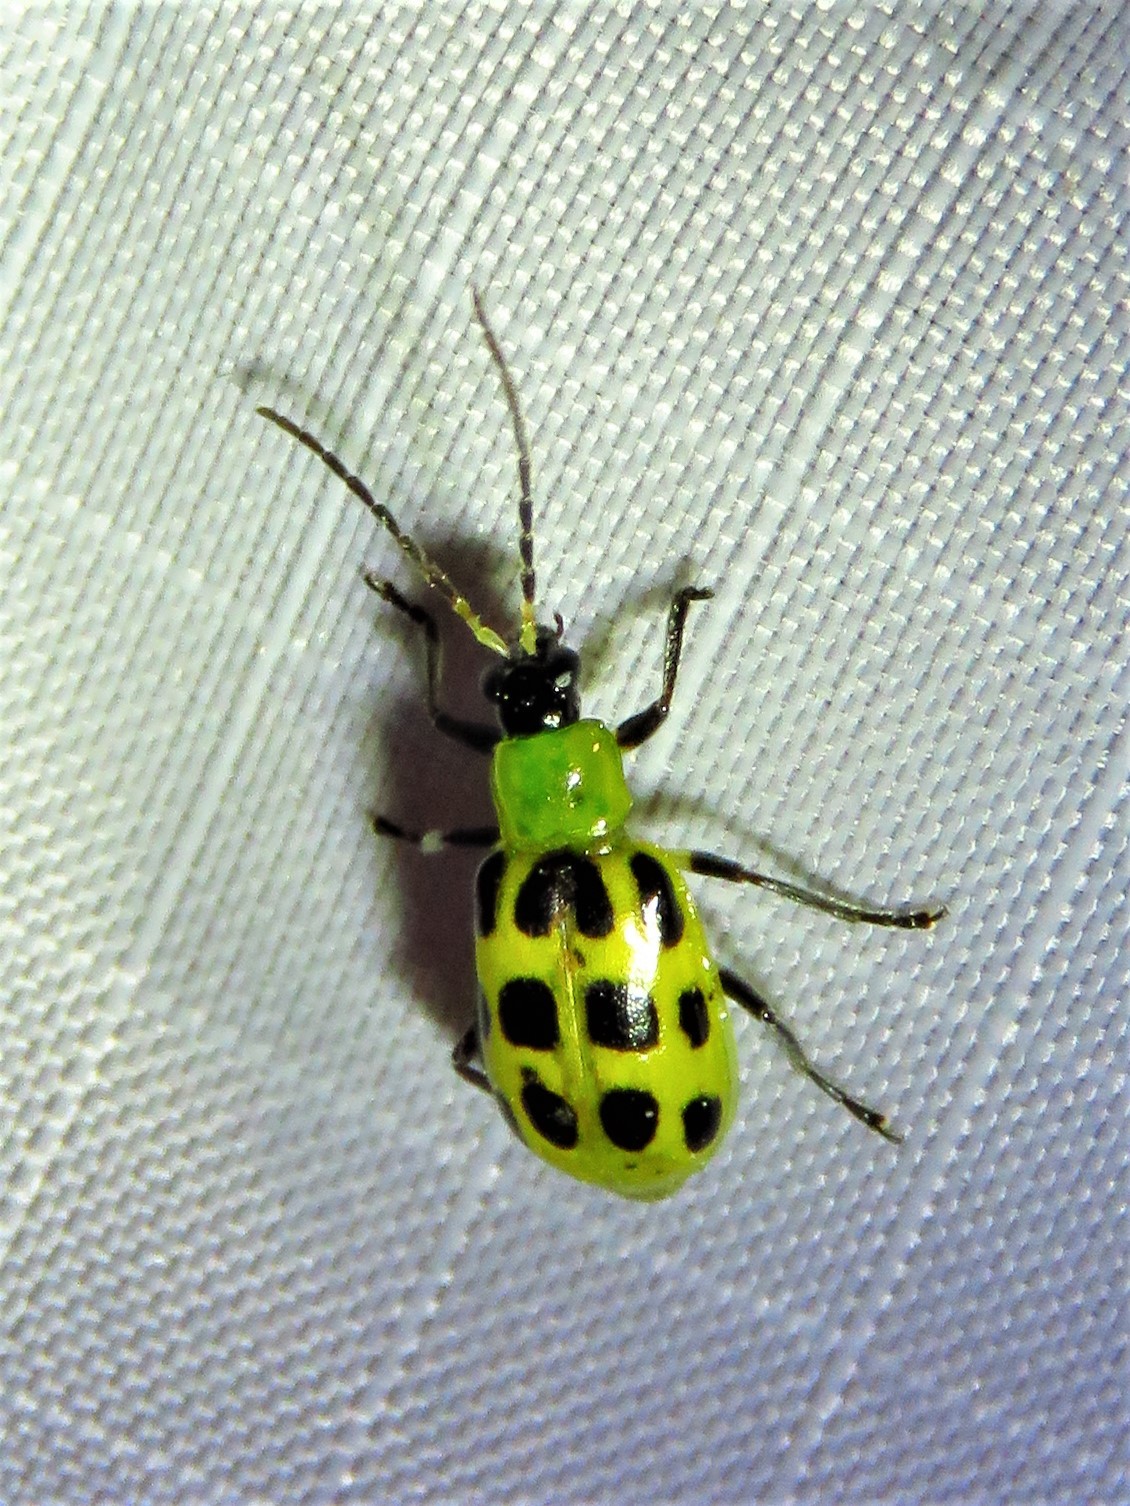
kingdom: Animalia
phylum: Arthropoda
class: Insecta
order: Coleoptera
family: Chrysomelidae
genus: Diabrotica
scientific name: Diabrotica undecimpunctata
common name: Spotted cucumber beetle
